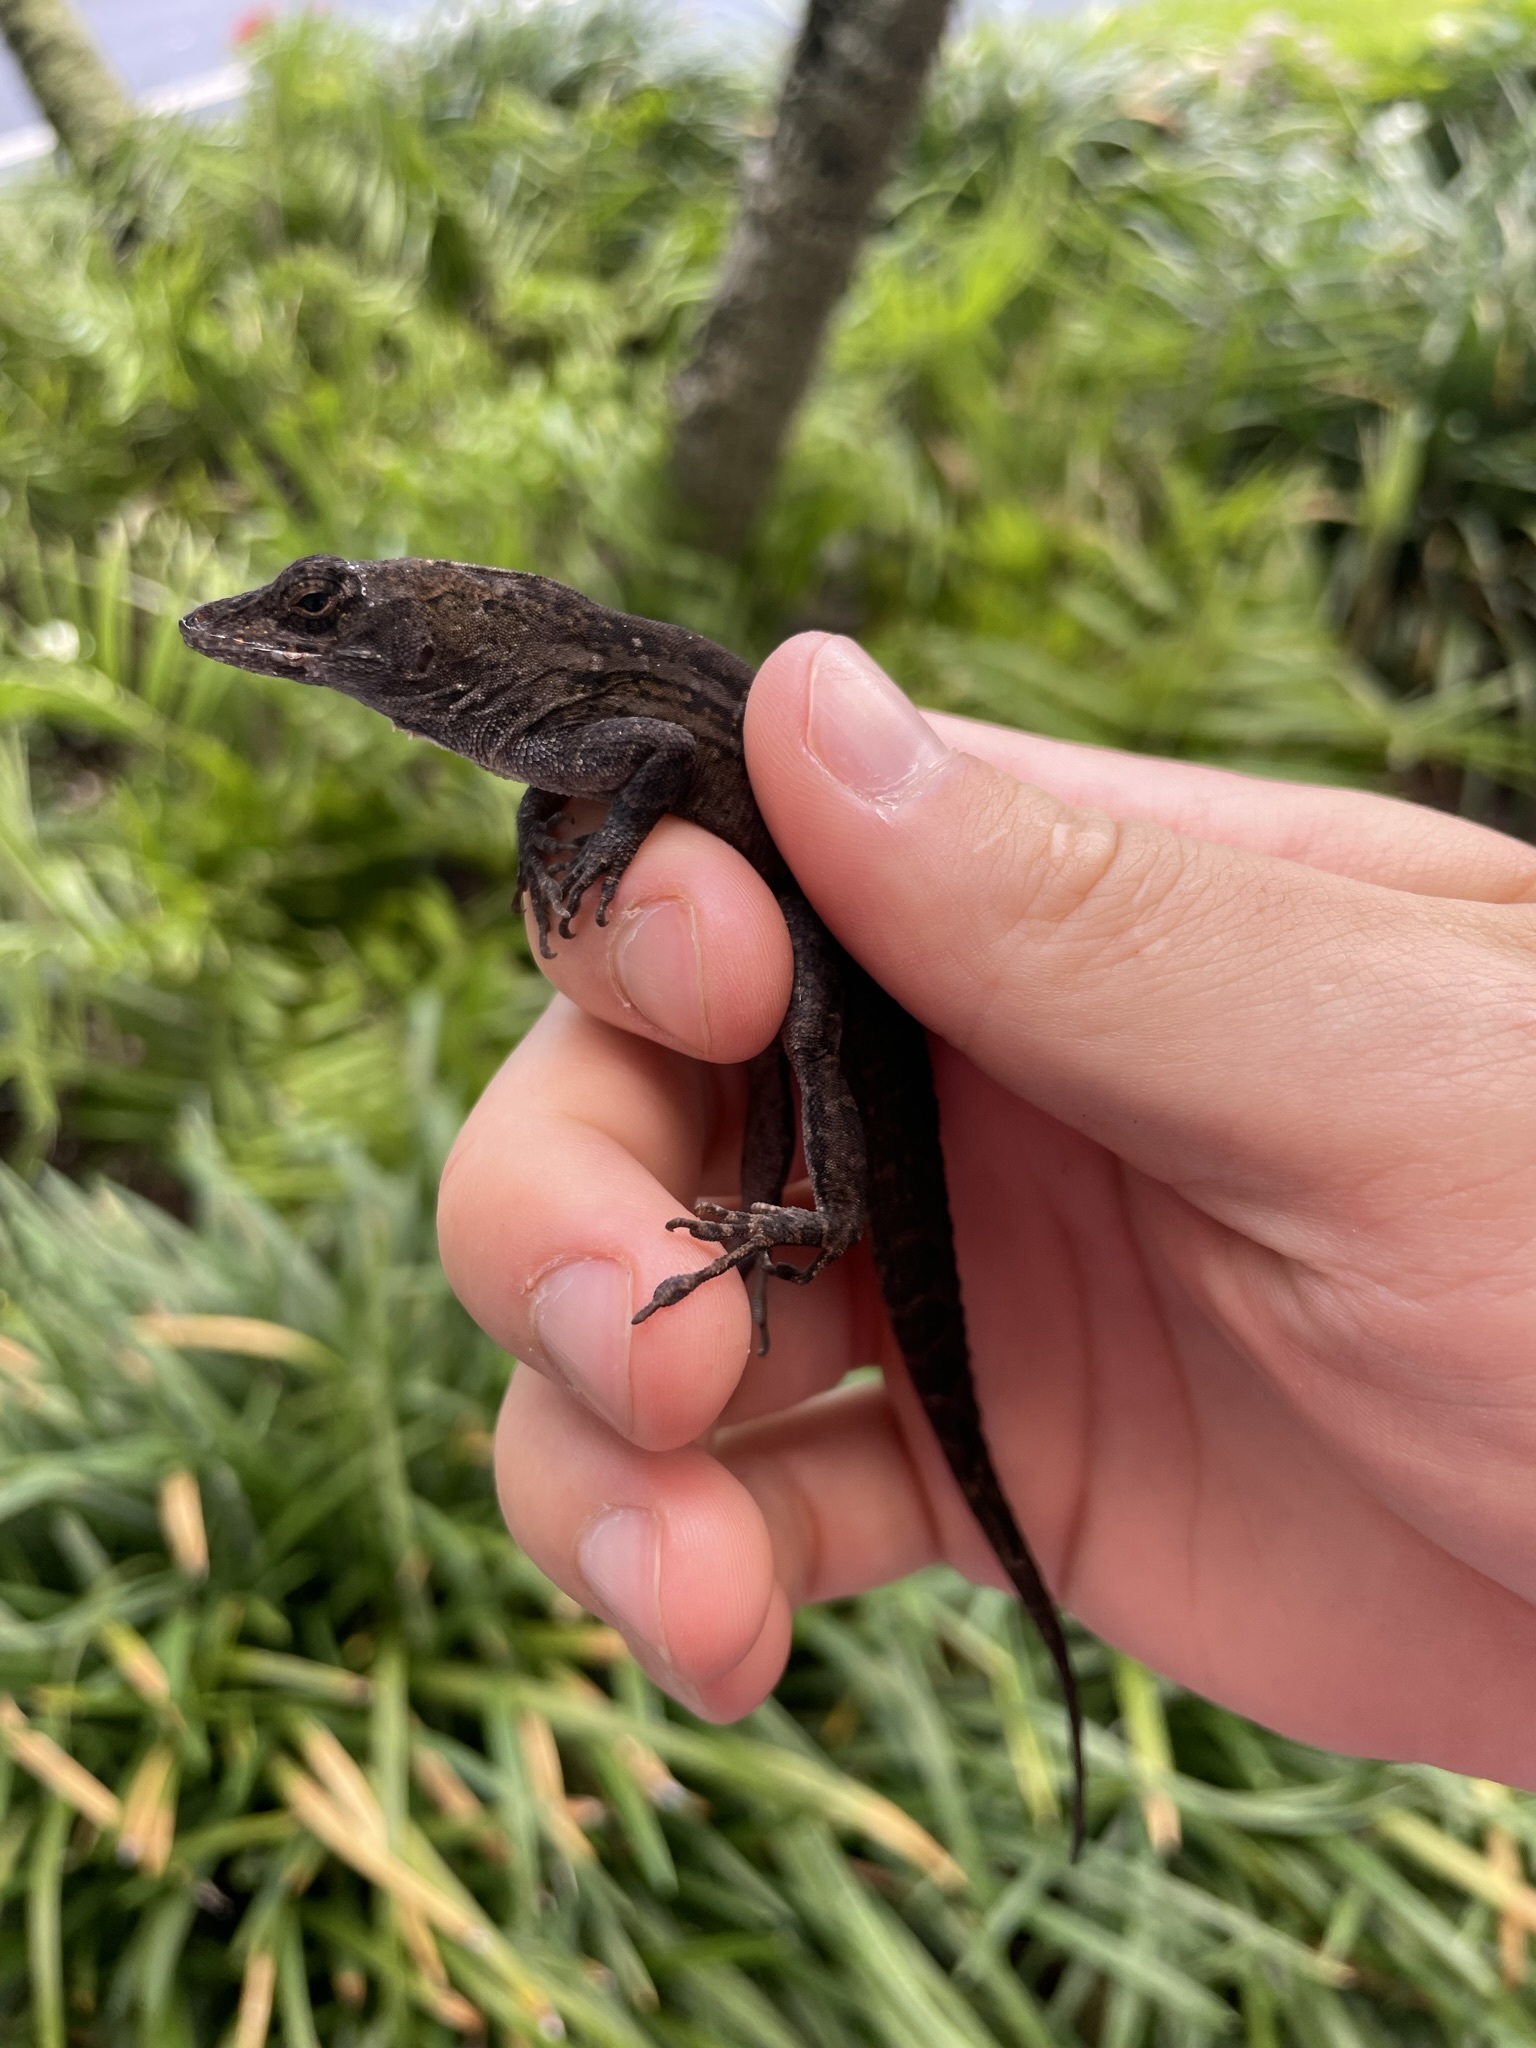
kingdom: Animalia
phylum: Chordata
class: Squamata
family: Dactyloidae
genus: Anolis
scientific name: Anolis sagrei
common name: Brown anole
